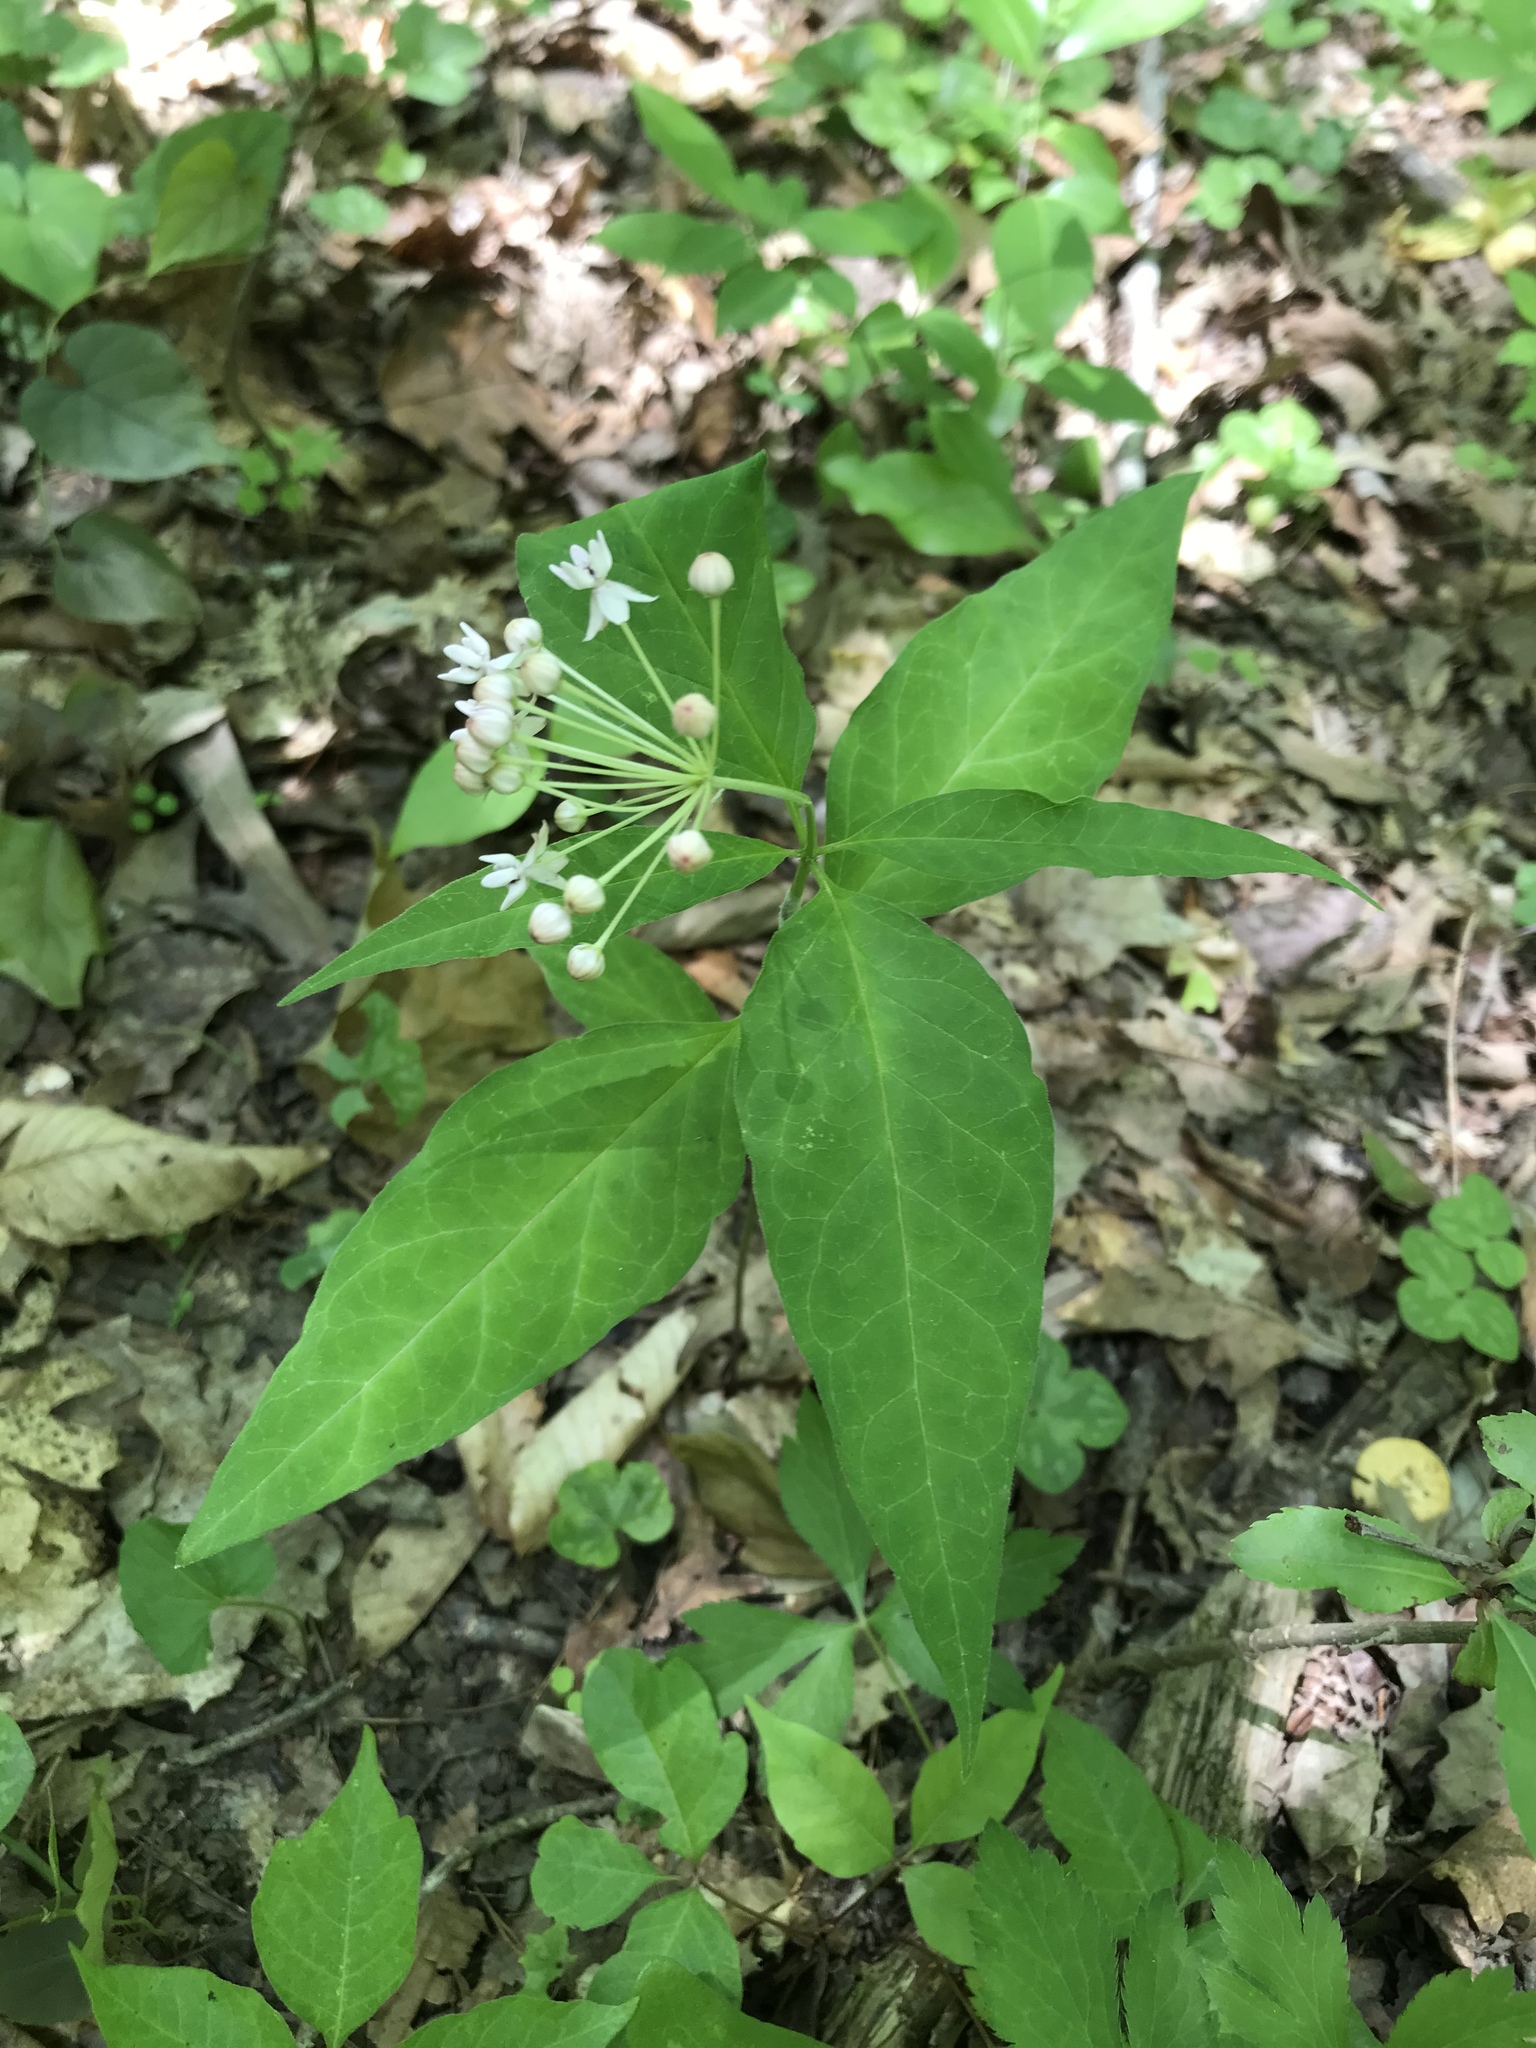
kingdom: Plantae
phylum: Tracheophyta
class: Magnoliopsida
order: Gentianales
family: Apocynaceae
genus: Asclepias
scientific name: Asclepias quadrifolia
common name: Whorled milkweed
